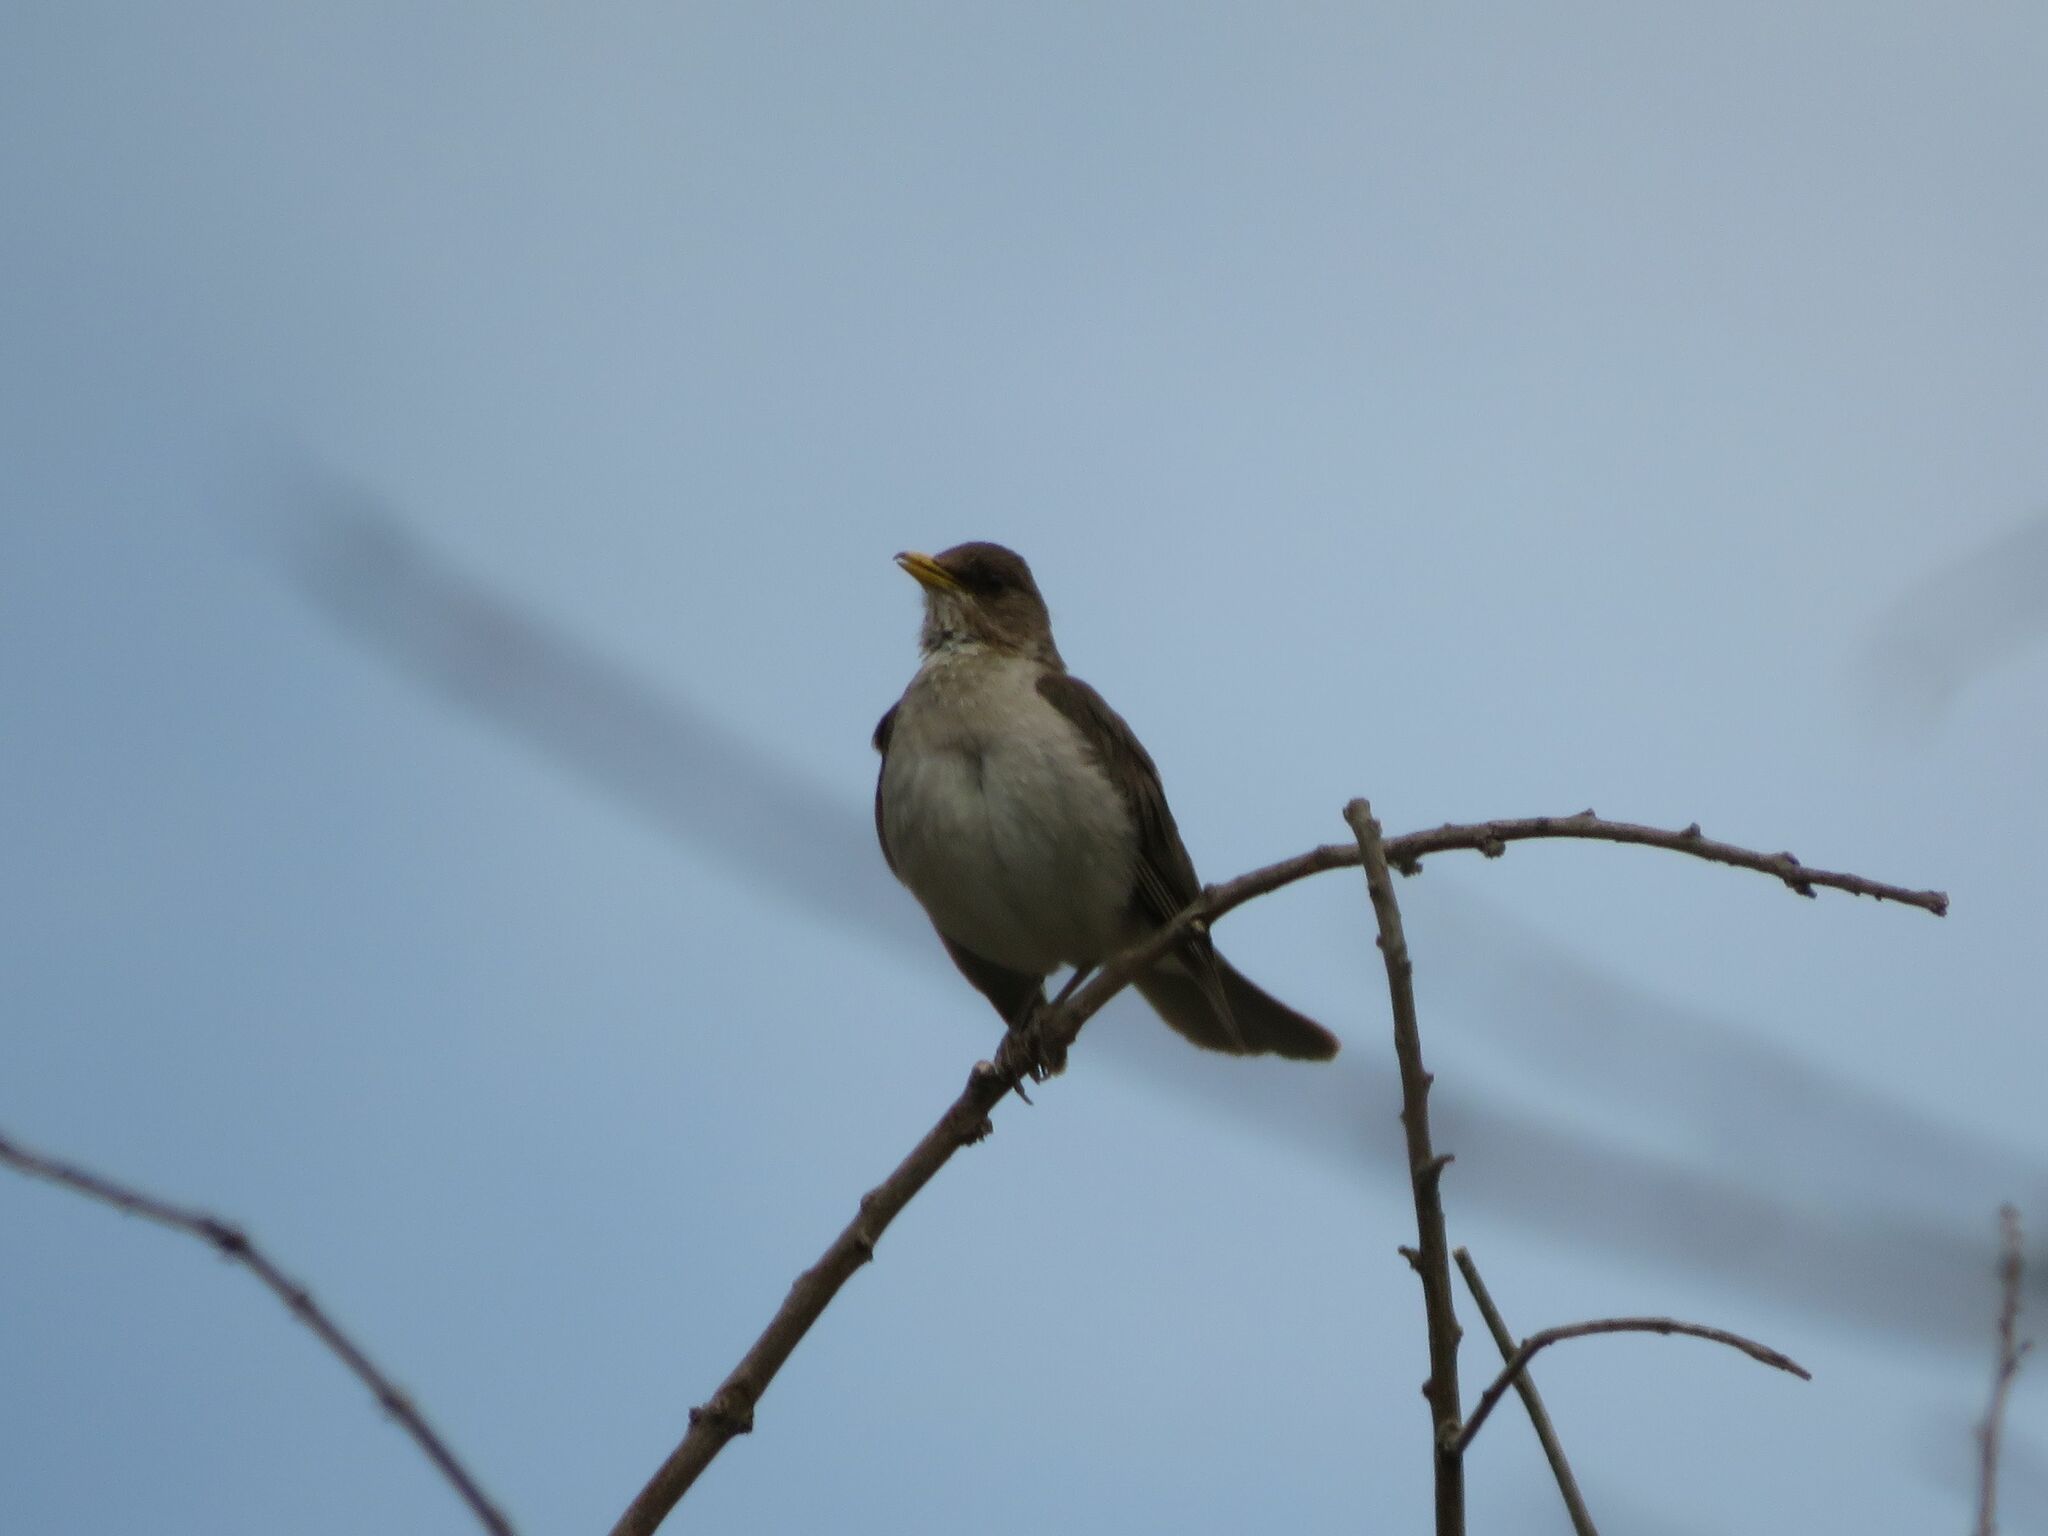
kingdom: Animalia
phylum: Chordata
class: Aves
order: Passeriformes
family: Turdidae
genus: Turdus
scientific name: Turdus amaurochalinus
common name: Creamy-bellied thrush
